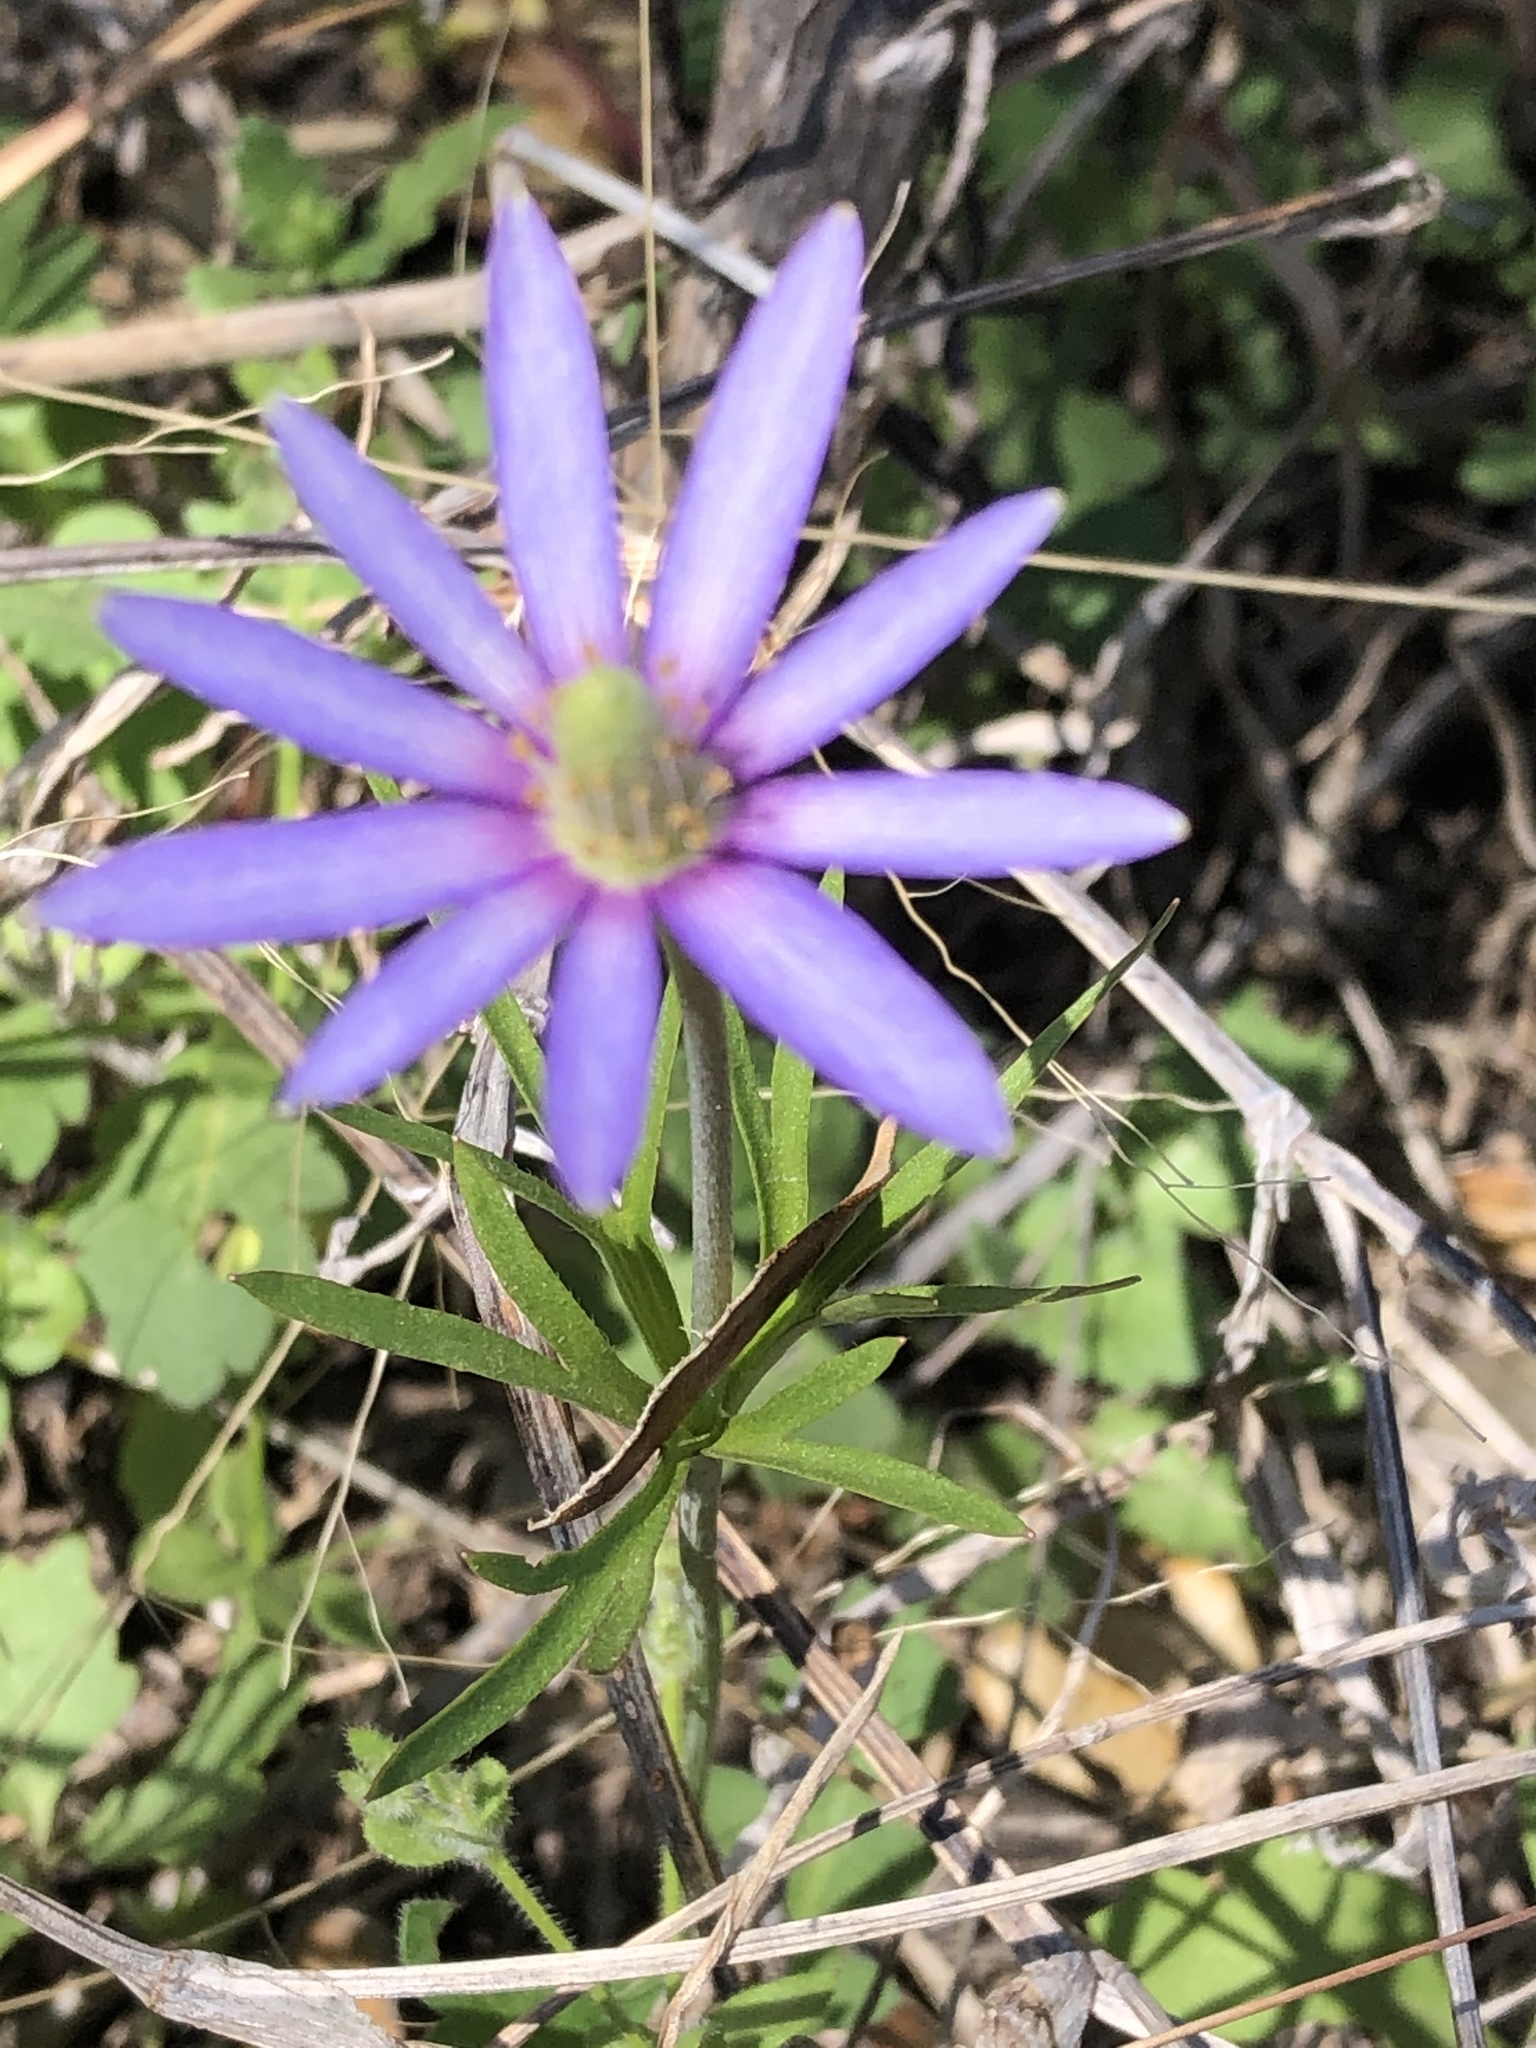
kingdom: Plantae
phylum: Tracheophyta
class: Magnoliopsida
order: Ranunculales
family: Ranunculaceae
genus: Anemone
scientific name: Anemone berlandieri
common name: Ten-petal anemone
